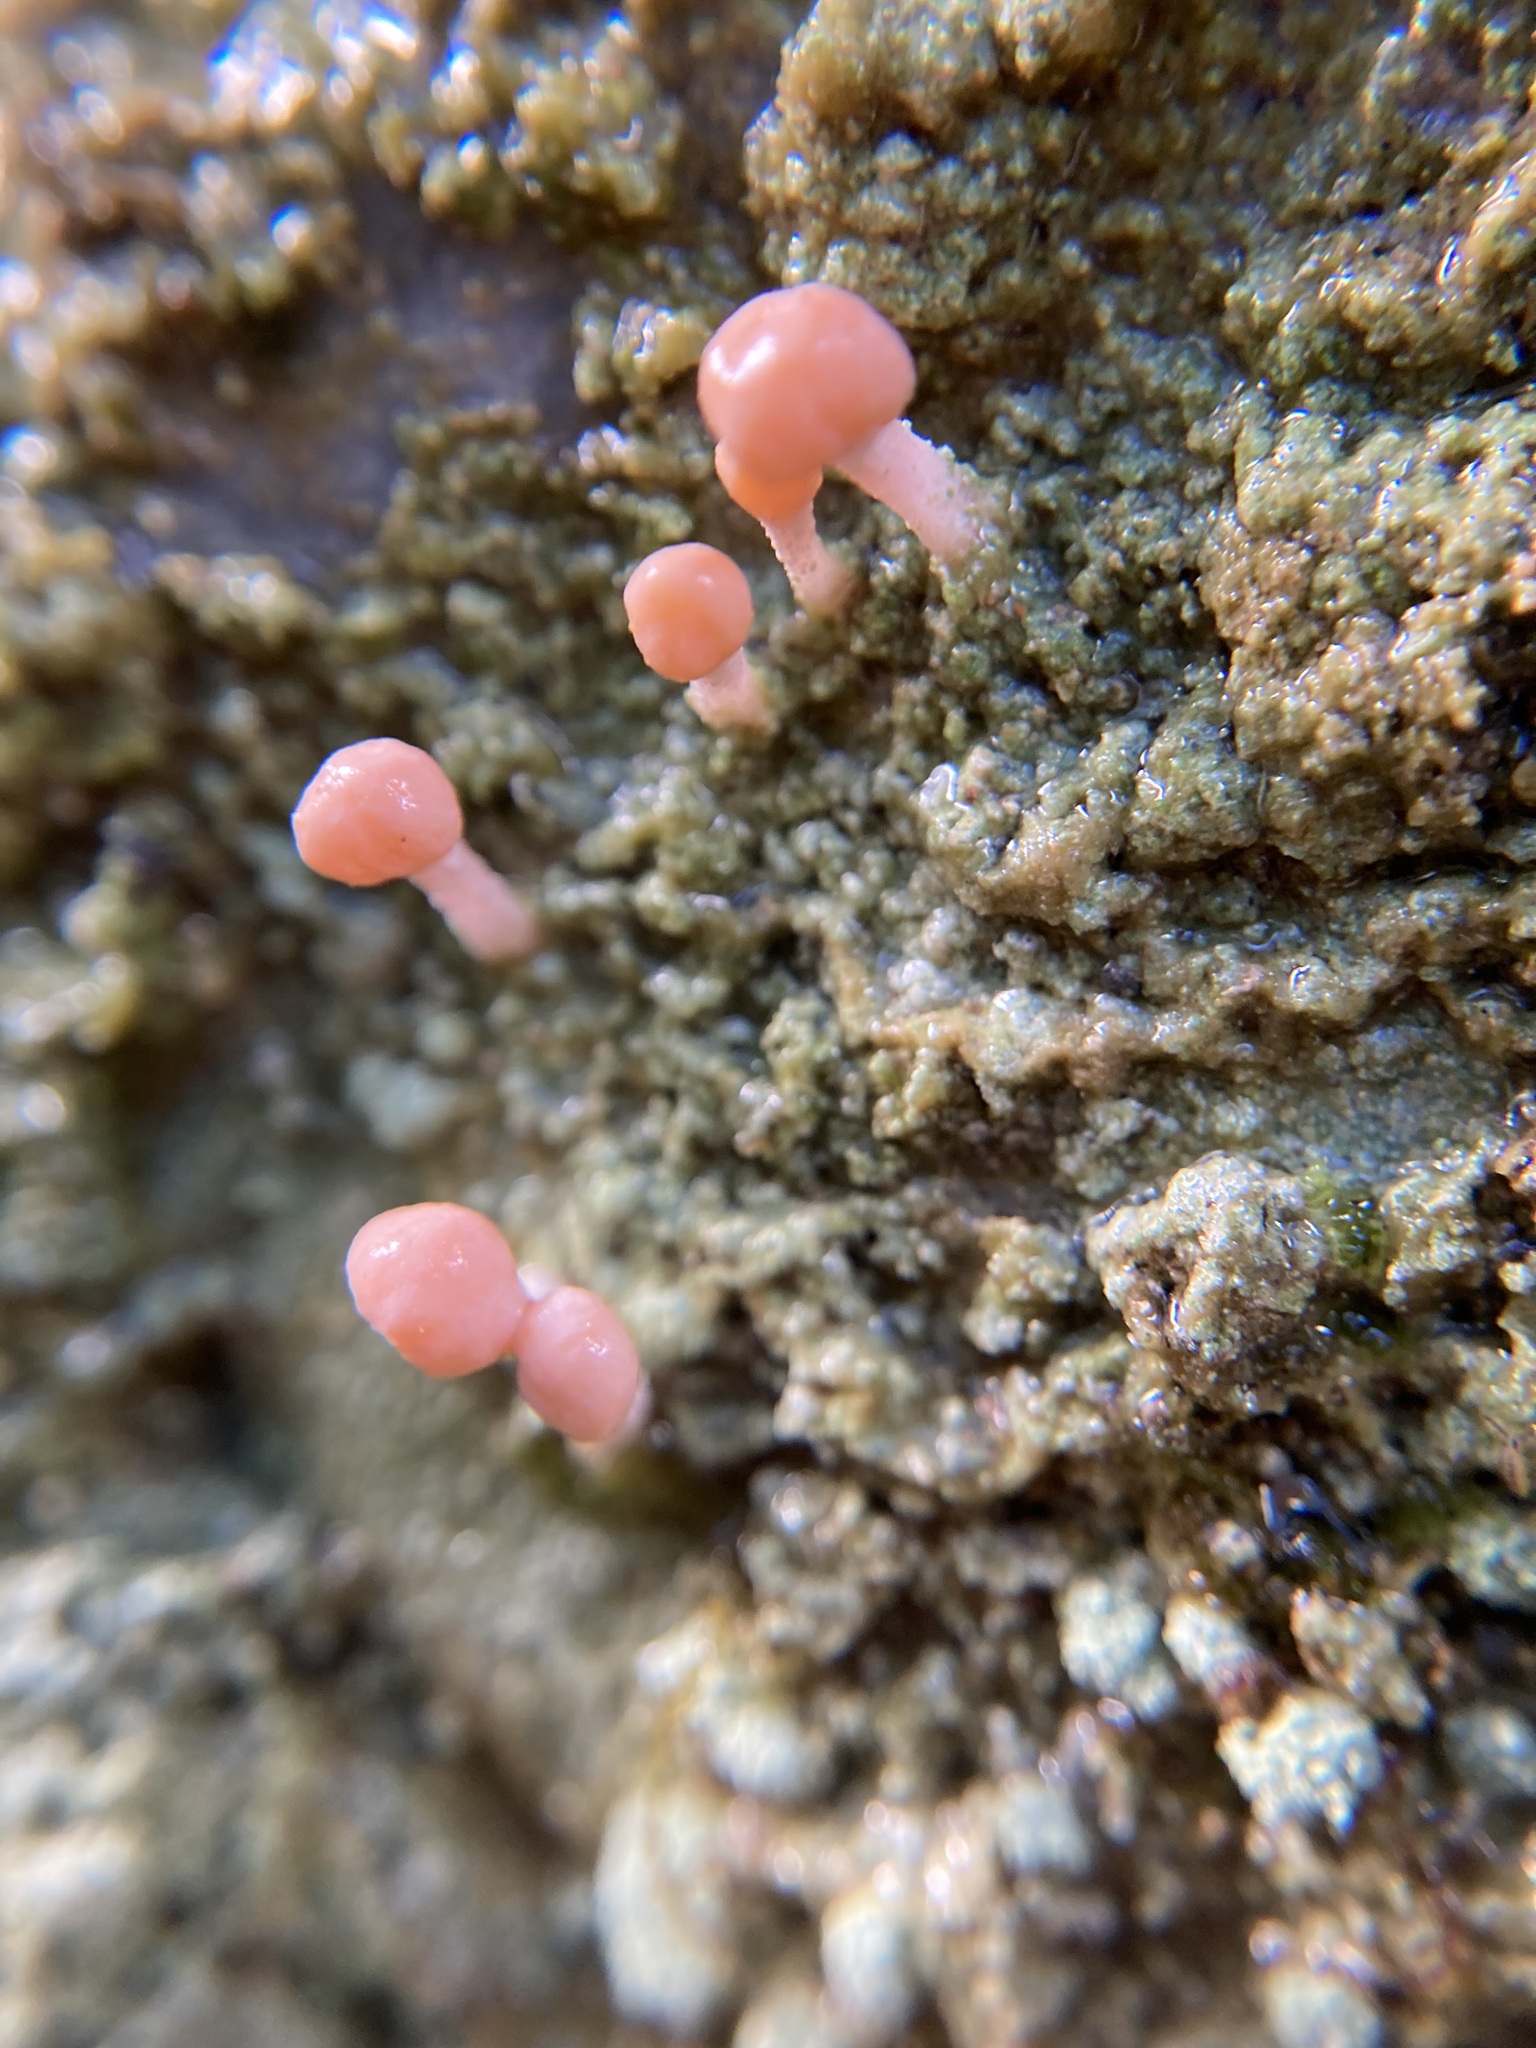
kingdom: Fungi
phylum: Ascomycota
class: Lecanoromycetes
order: Pertusariales
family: Icmadophilaceae
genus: Dibaeis
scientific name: Dibaeis arcuata
